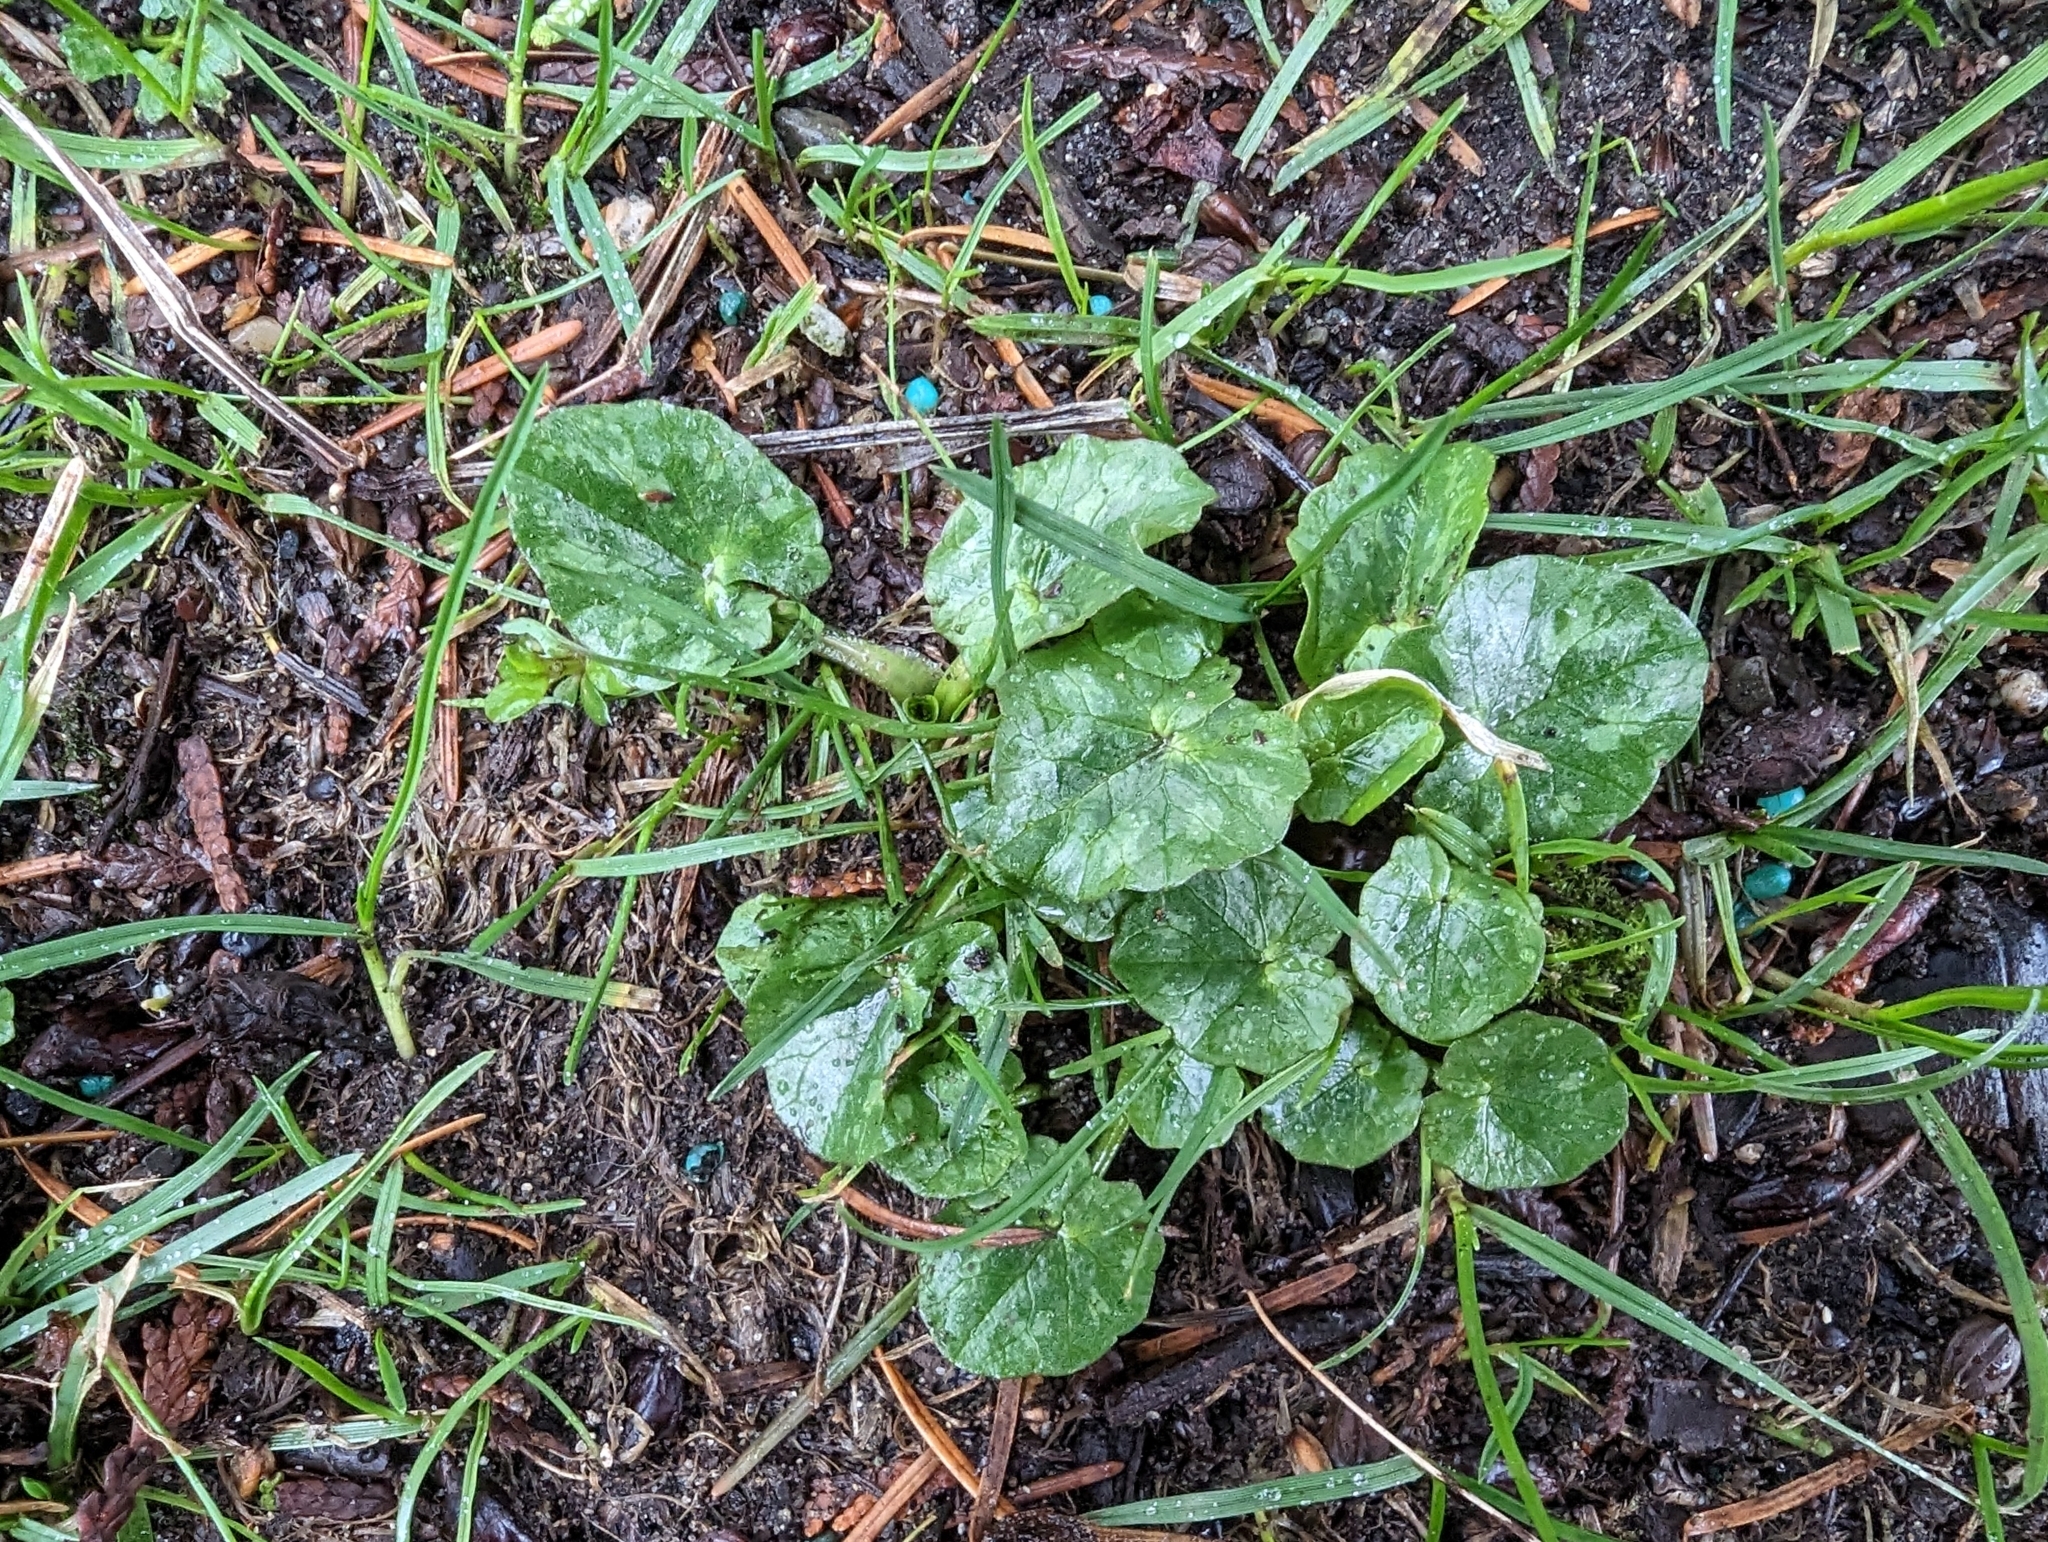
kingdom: Plantae
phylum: Tracheophyta
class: Magnoliopsida
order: Ranunculales
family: Ranunculaceae
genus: Ficaria
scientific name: Ficaria verna
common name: Lesser celandine
